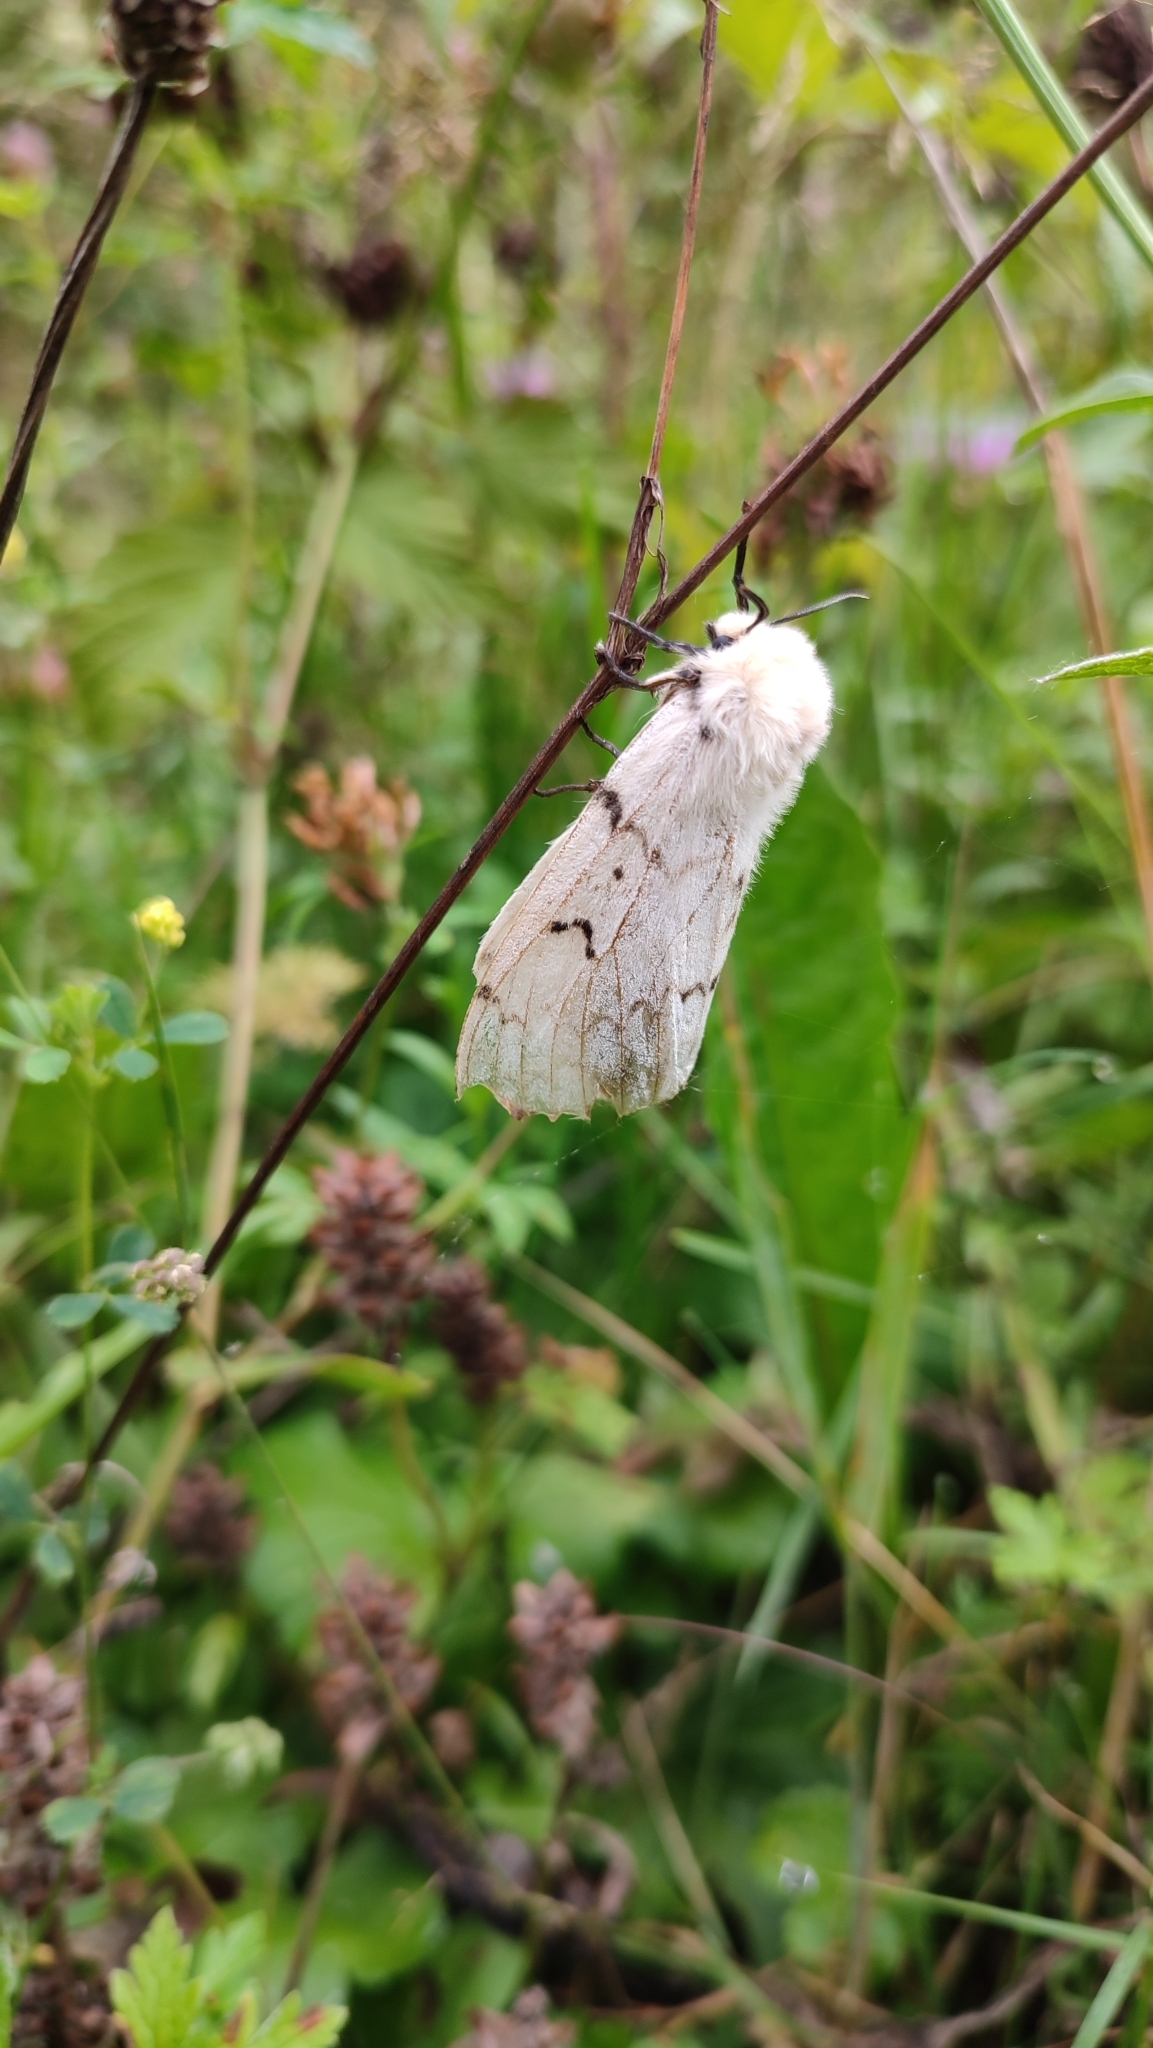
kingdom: Animalia
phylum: Arthropoda
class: Insecta
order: Lepidoptera
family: Erebidae
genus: Lymantria
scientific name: Lymantria dispar
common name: Gypsy moth
